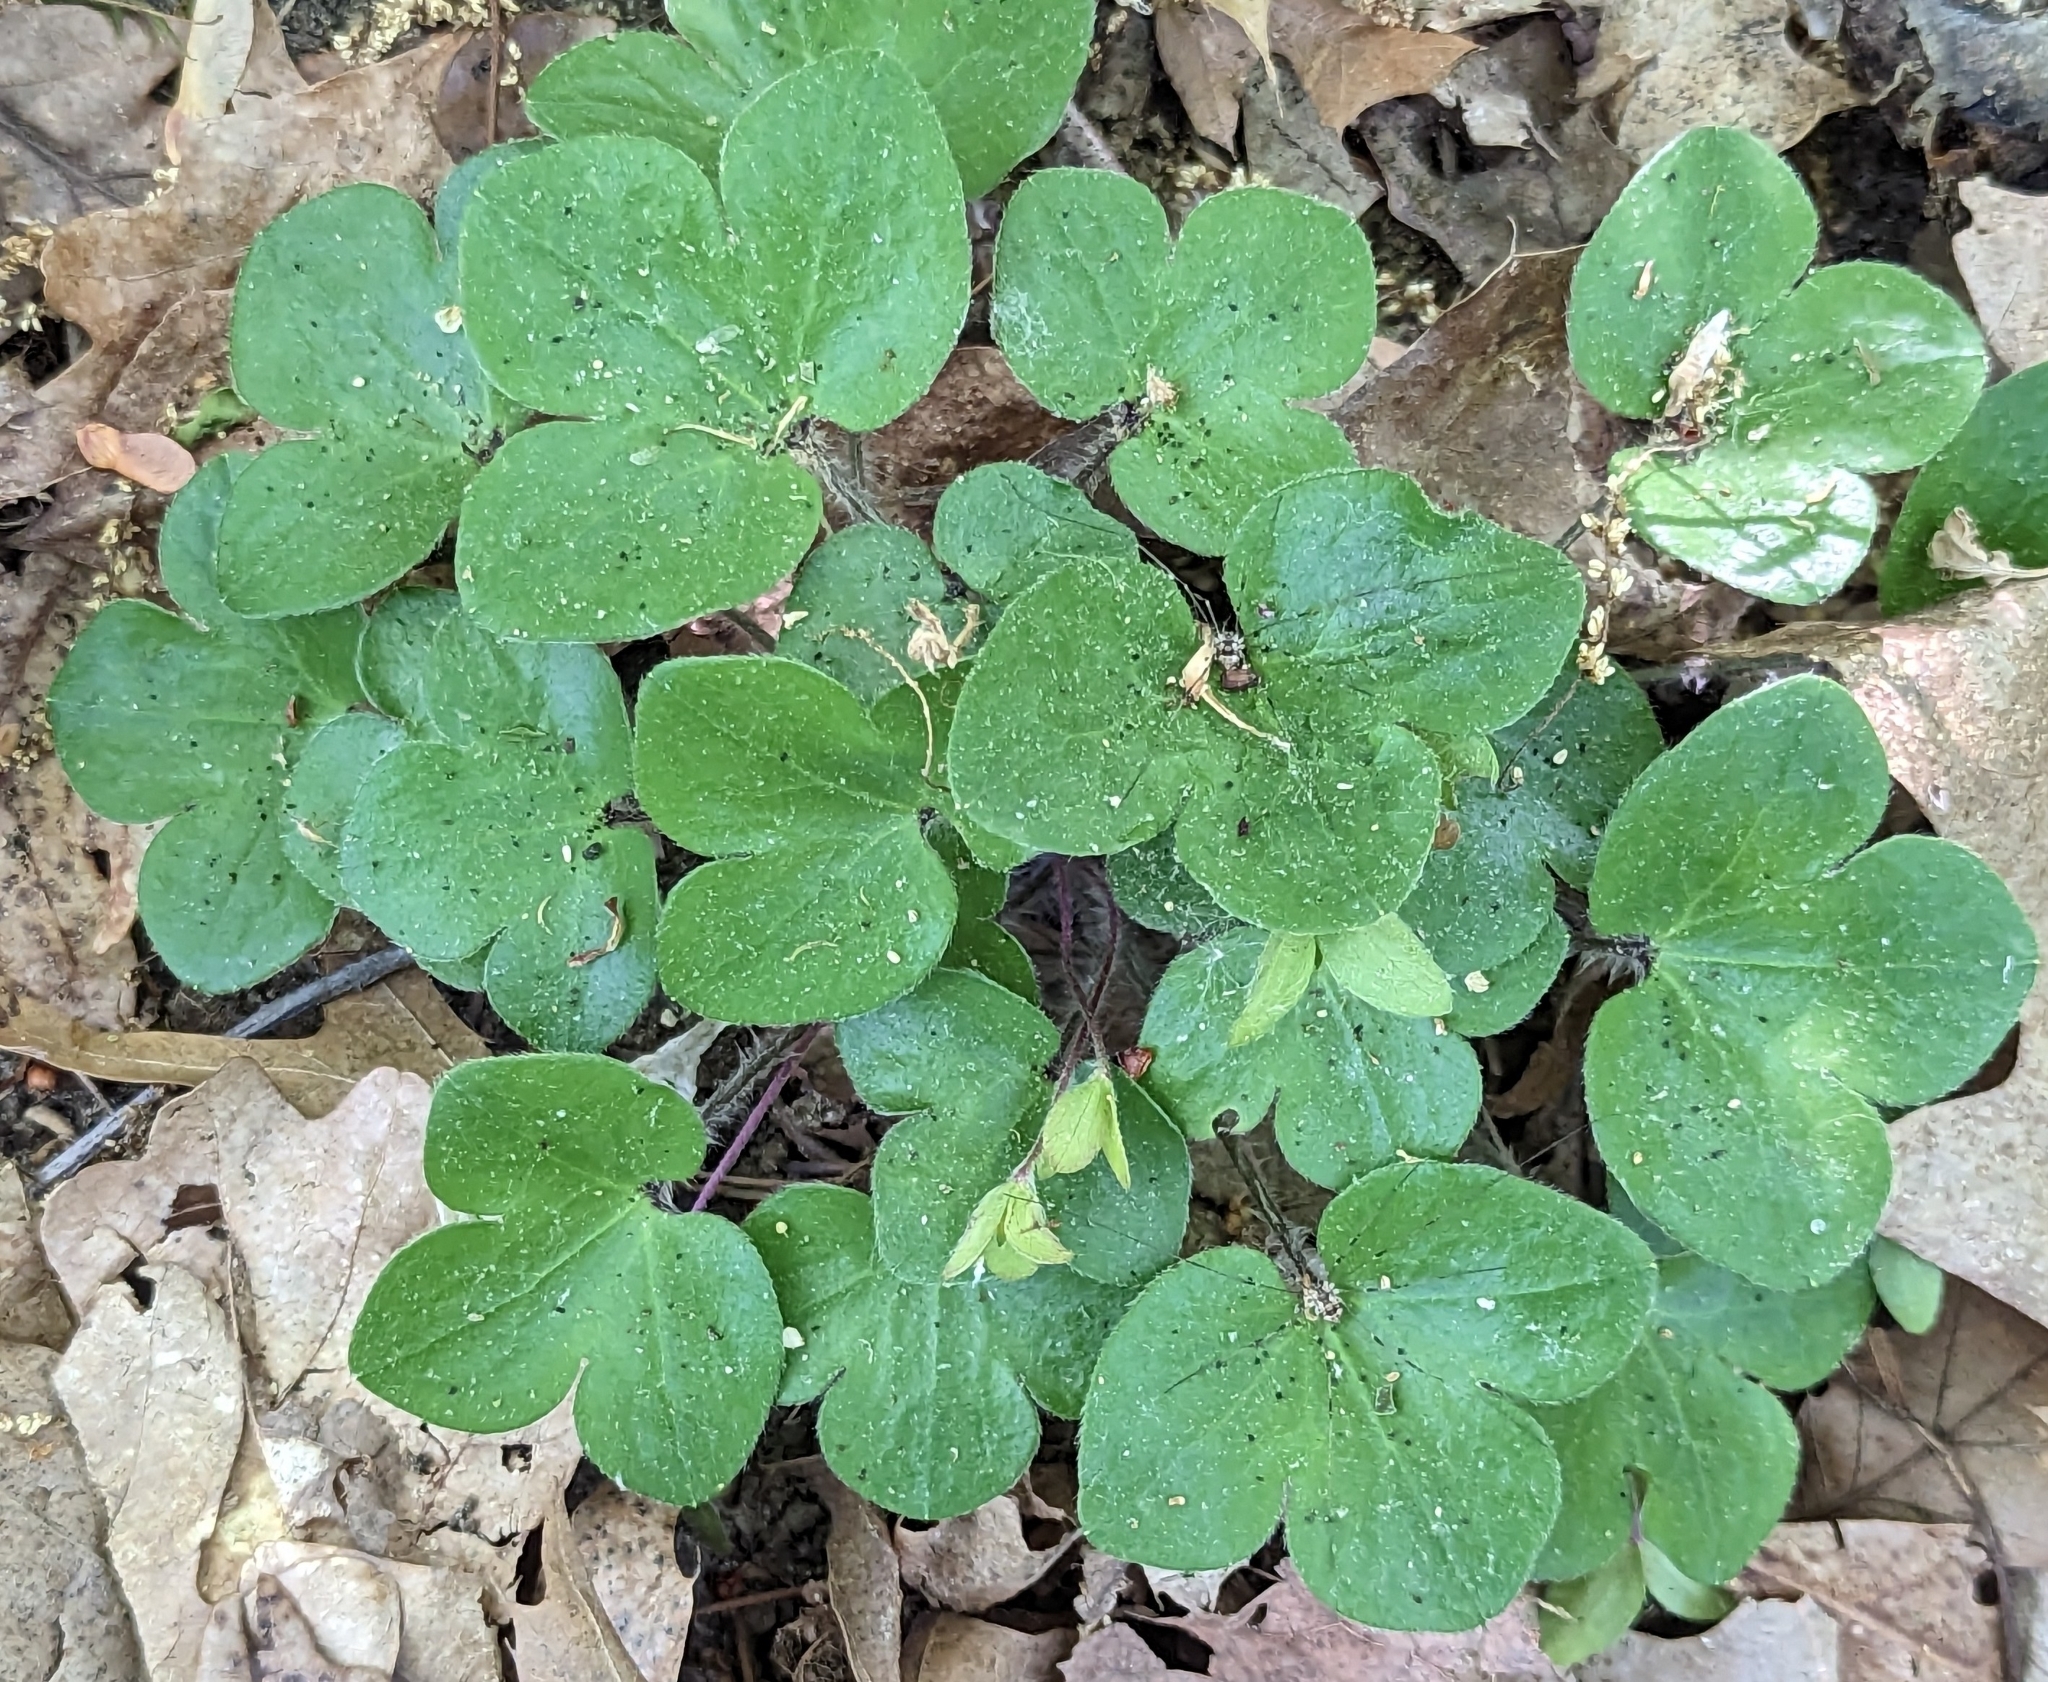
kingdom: Plantae
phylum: Tracheophyta
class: Magnoliopsida
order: Ranunculales
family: Ranunculaceae
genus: Hepatica
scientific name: Hepatica americana
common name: American hepatica
